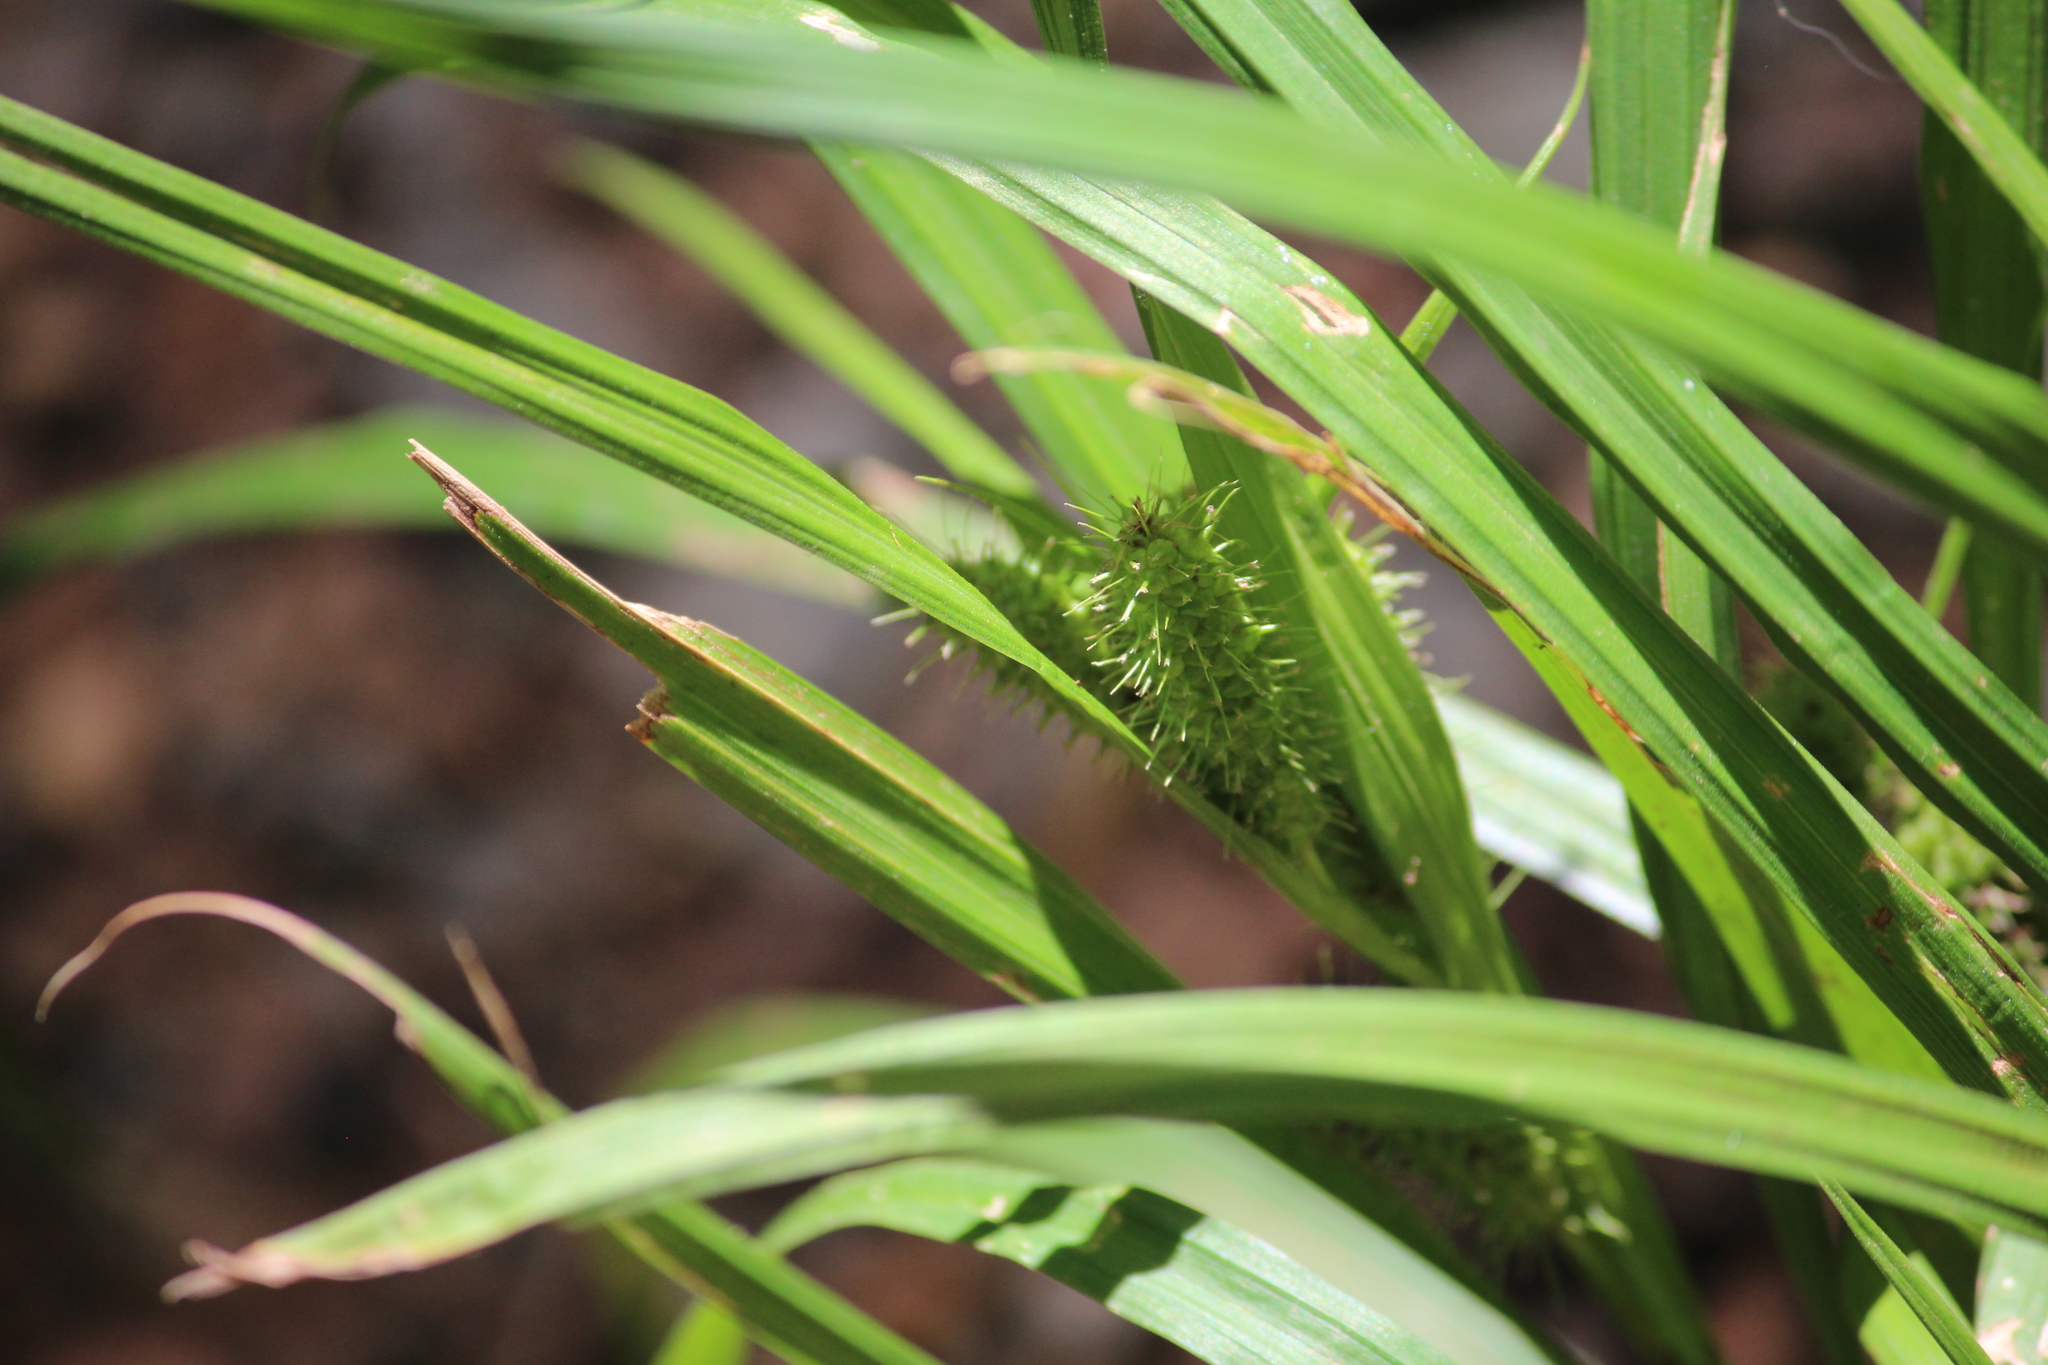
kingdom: Plantae
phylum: Tracheophyta
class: Liliopsida
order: Poales
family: Cyperaceae
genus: Carex
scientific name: Carex frankii
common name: Frank's sedge
